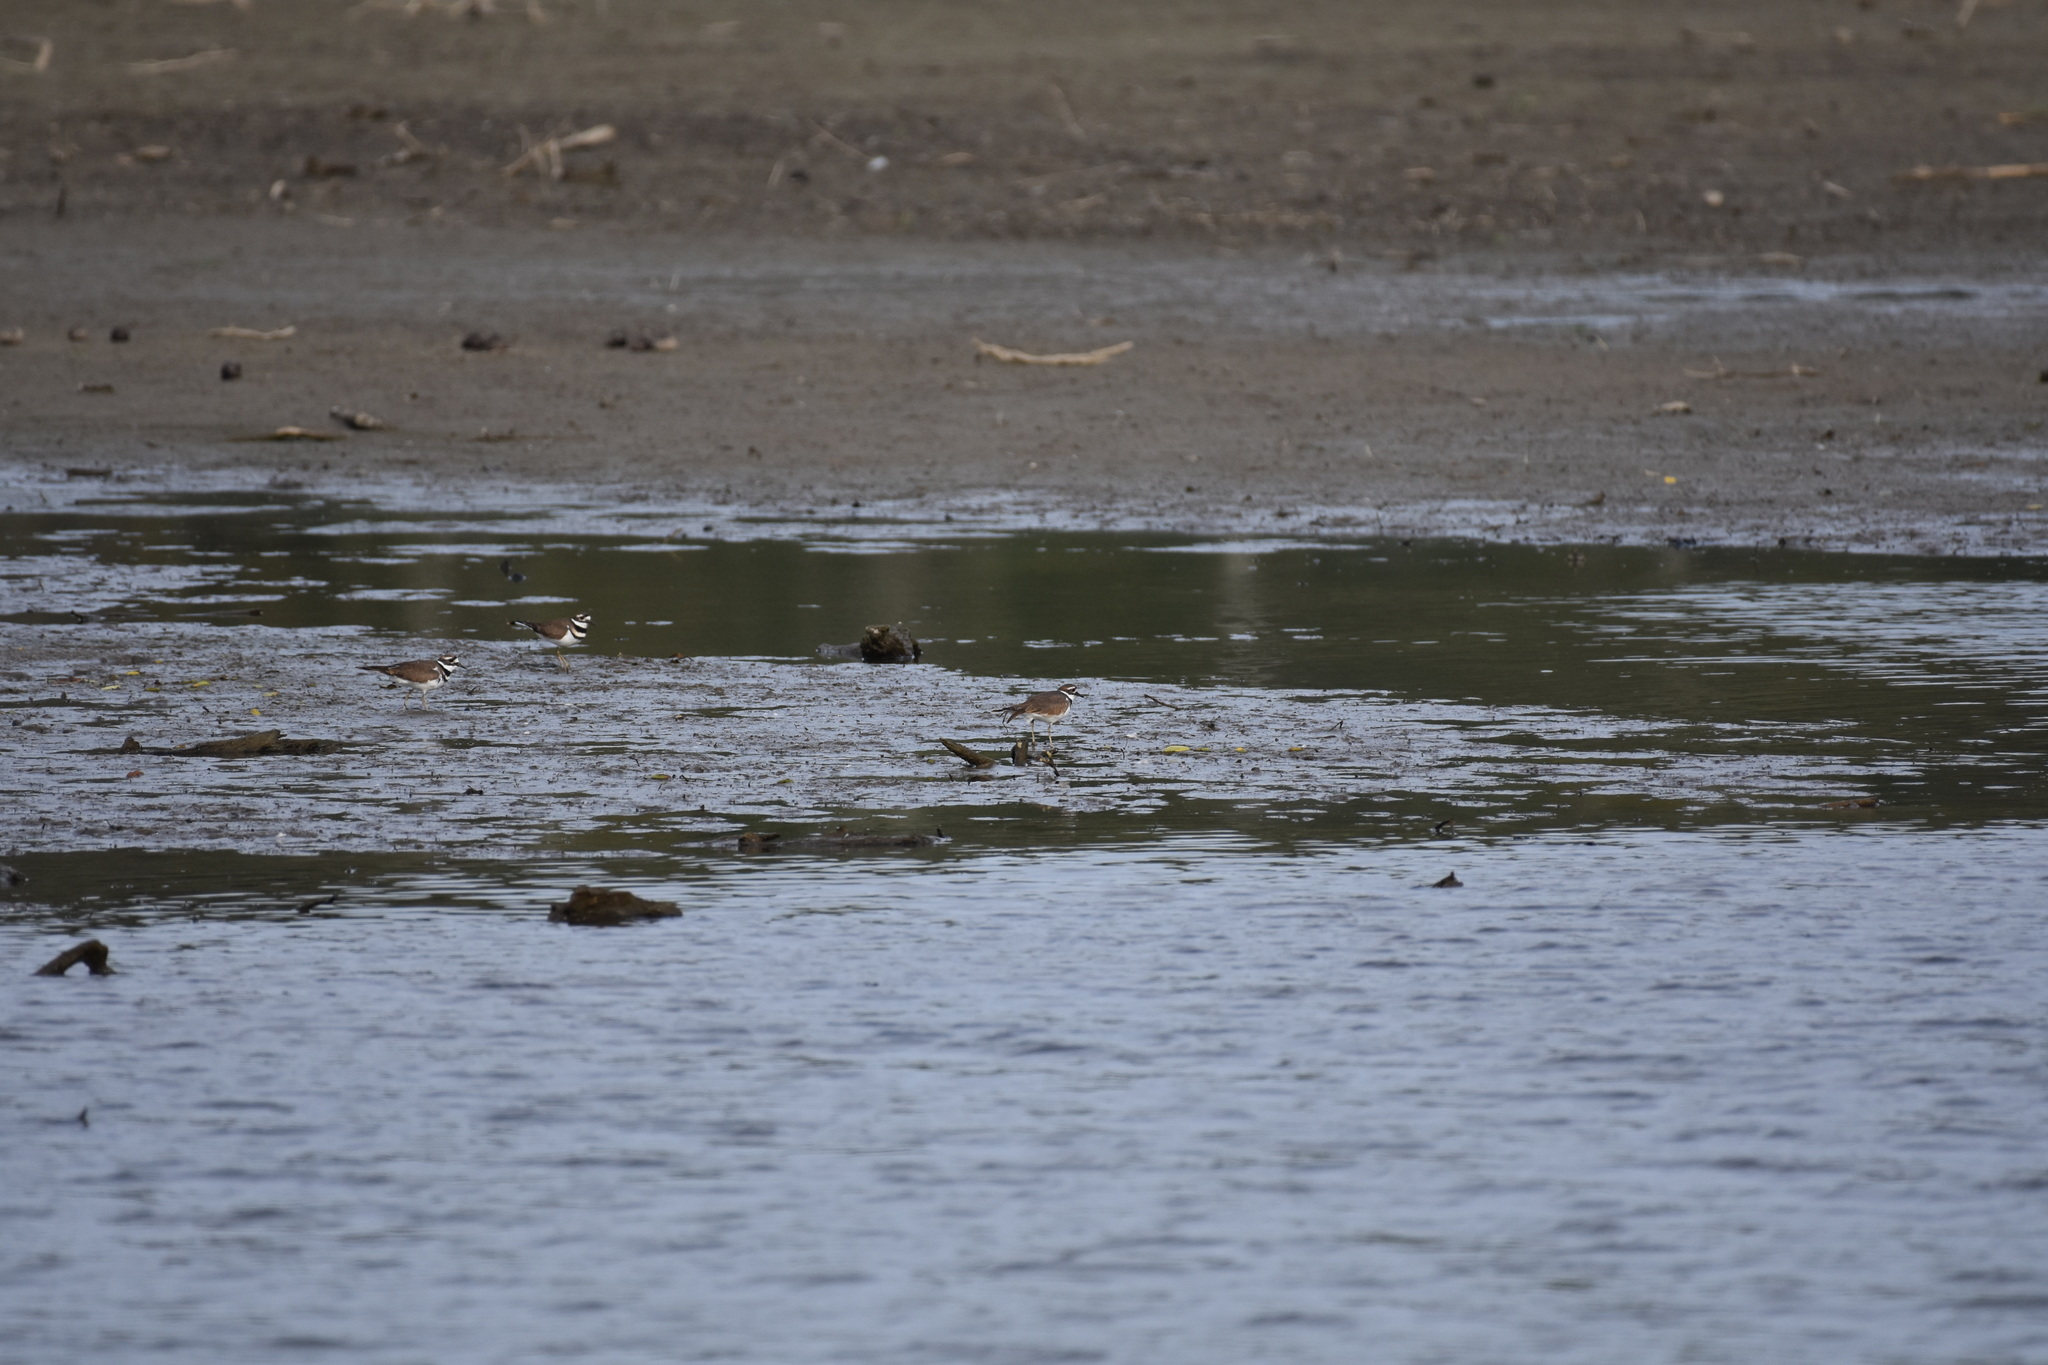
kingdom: Animalia
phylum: Chordata
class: Aves
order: Charadriiformes
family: Charadriidae
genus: Charadrius
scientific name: Charadrius vociferus
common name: Killdeer
